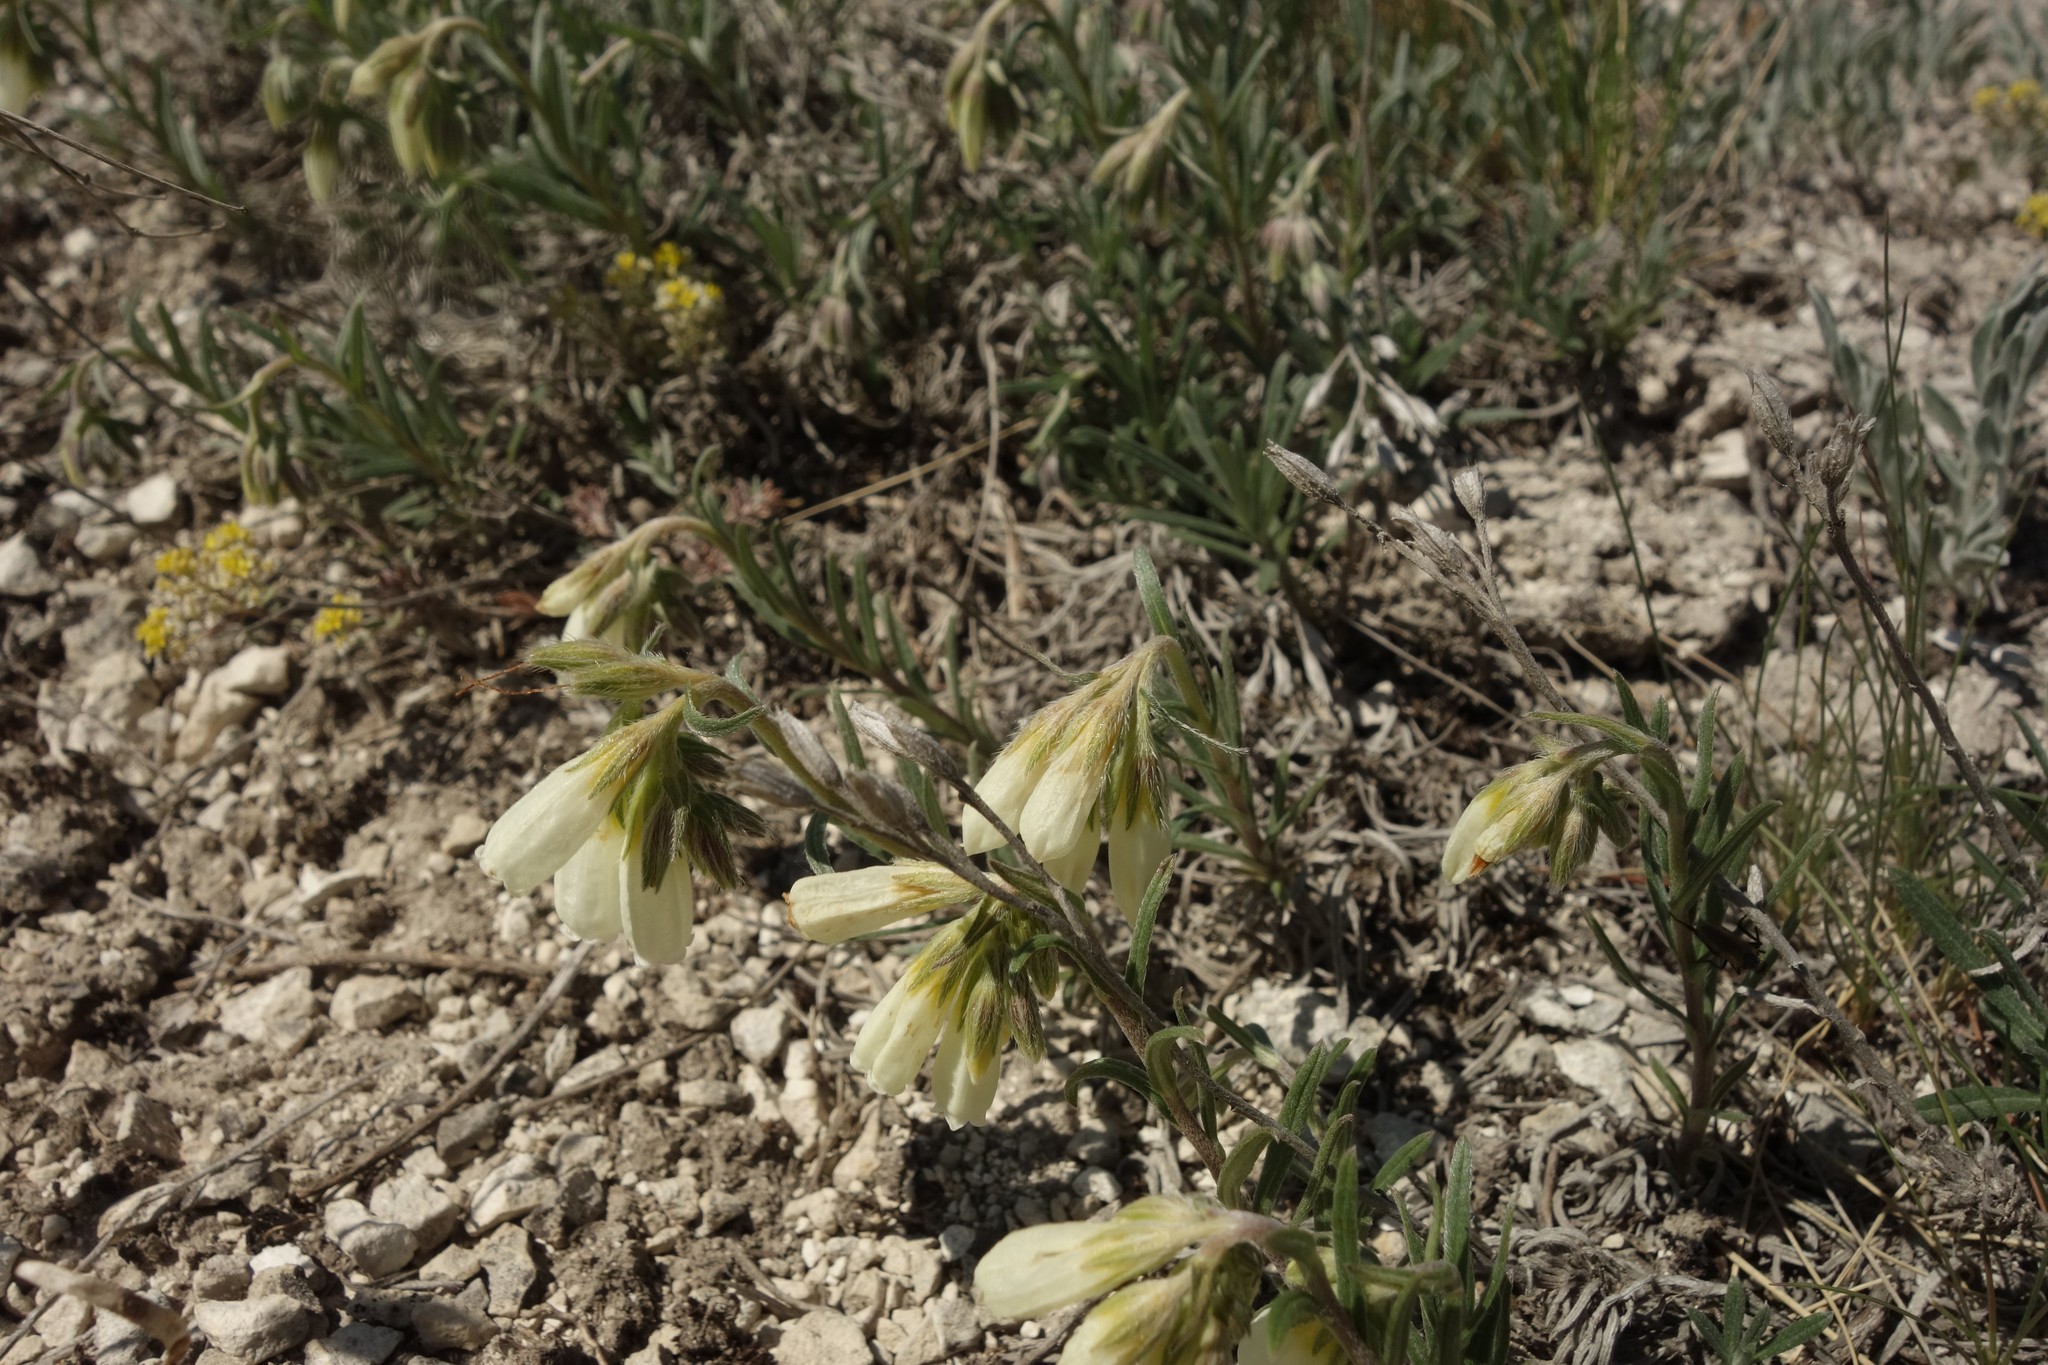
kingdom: Plantae
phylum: Tracheophyta
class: Magnoliopsida
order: Boraginales
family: Boraginaceae
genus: Onosma
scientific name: Onosma simplicissima
